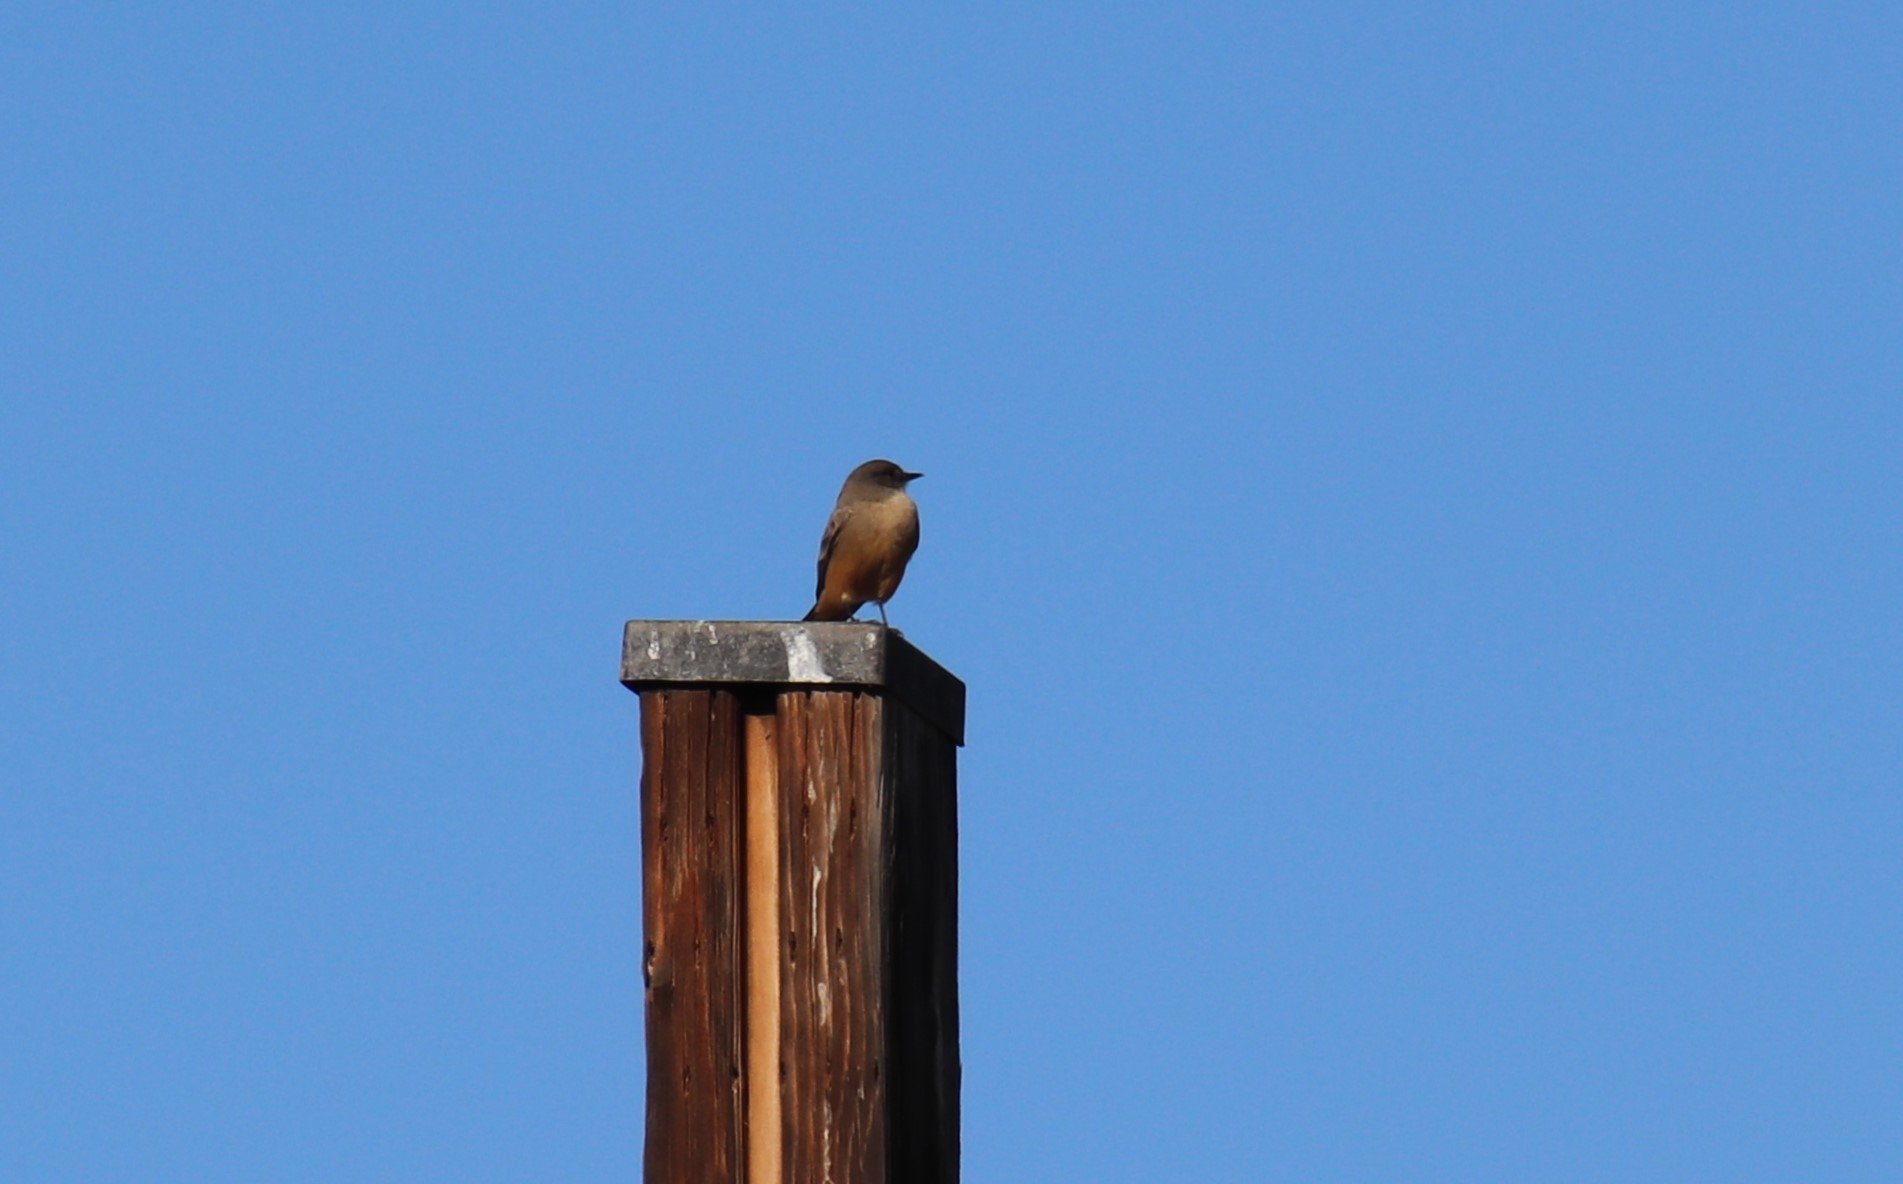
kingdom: Animalia
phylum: Chordata
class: Aves
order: Passeriformes
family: Tyrannidae
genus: Sayornis
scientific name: Sayornis saya
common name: Say's phoebe
